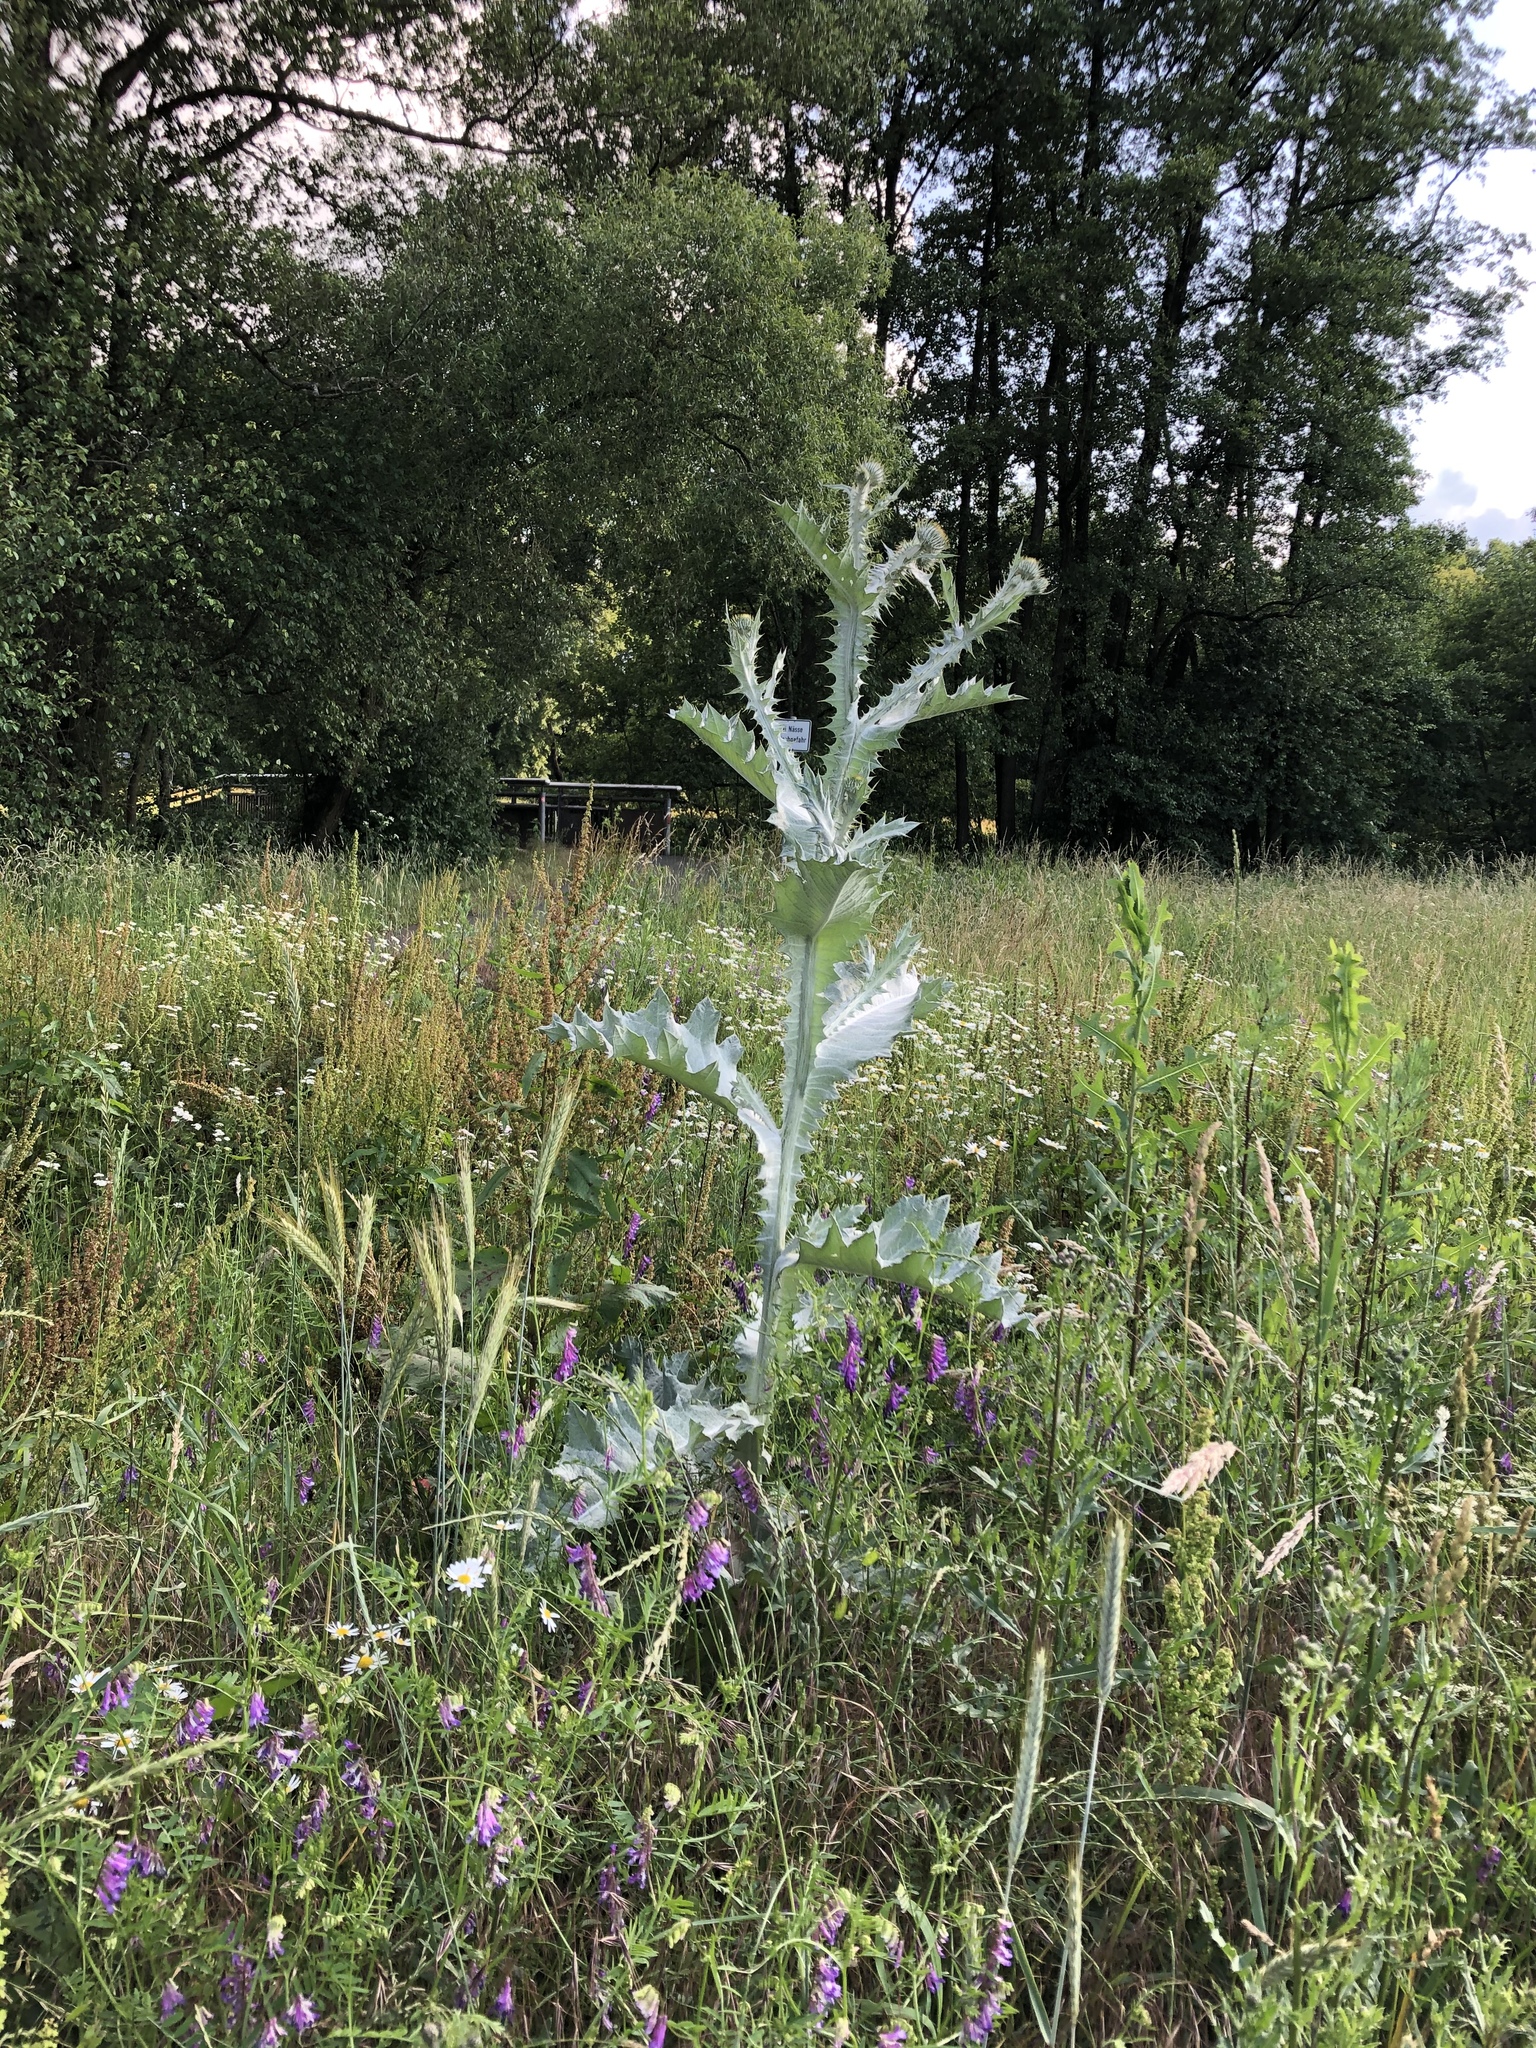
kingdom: Plantae
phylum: Tracheophyta
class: Magnoliopsida
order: Asterales
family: Asteraceae
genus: Onopordum
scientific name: Onopordum acanthium
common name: Scotch thistle
